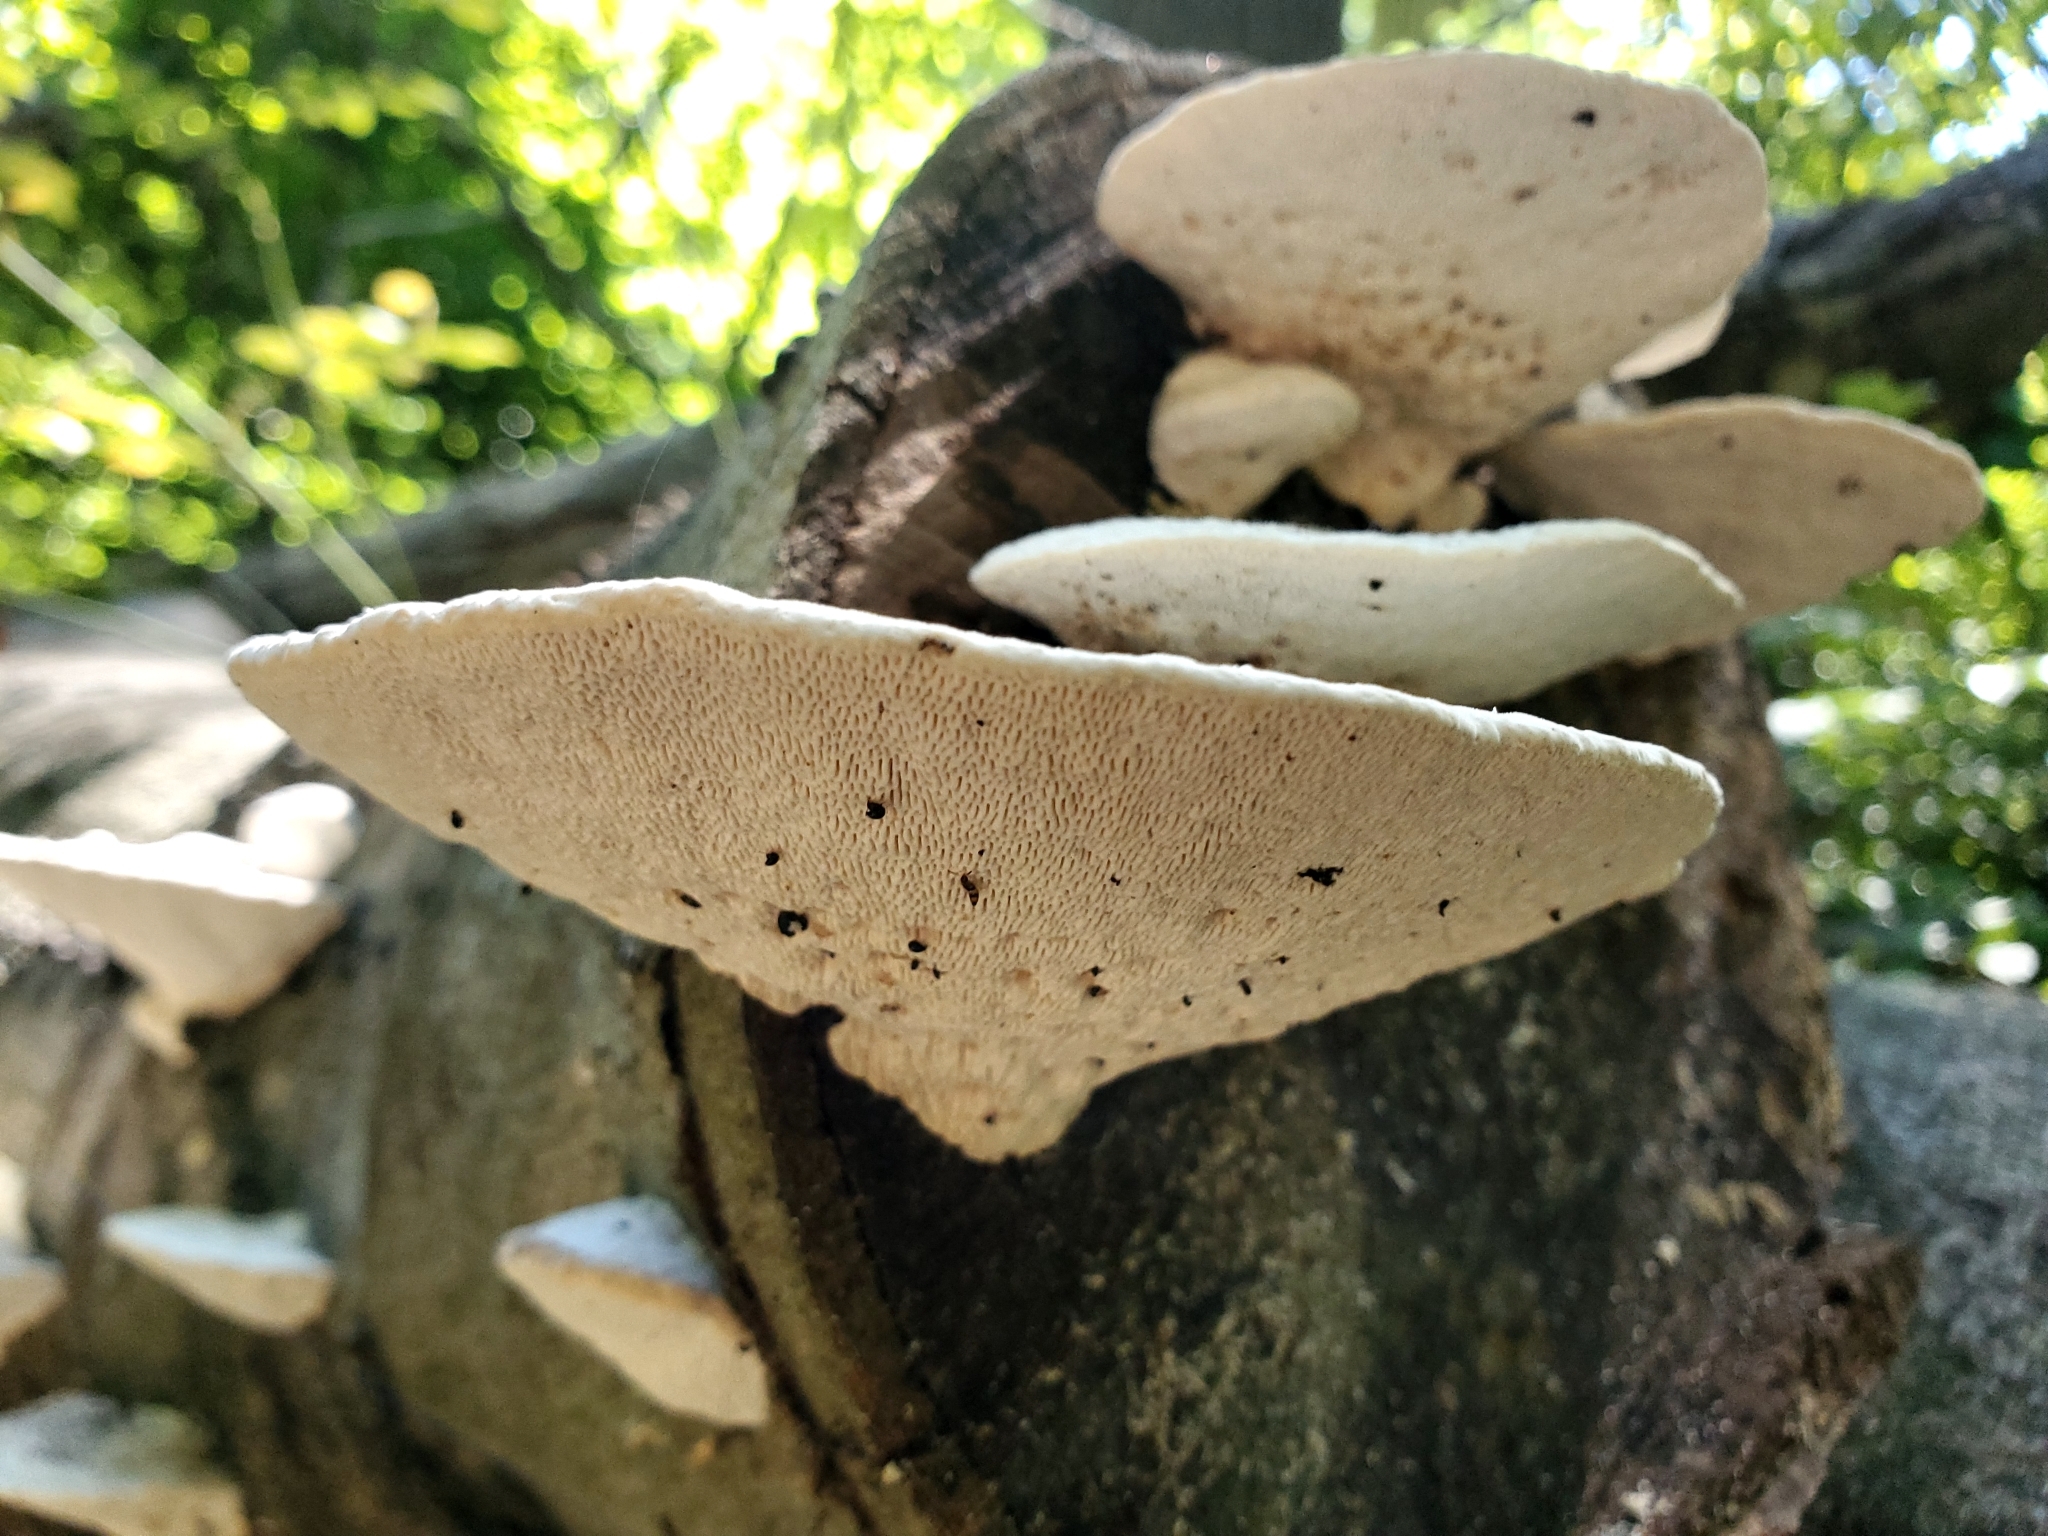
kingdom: Fungi
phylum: Basidiomycota
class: Agaricomycetes
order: Polyporales
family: Polyporaceae
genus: Trametes
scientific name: Trametes gibbosa
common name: Lumpy bracket
